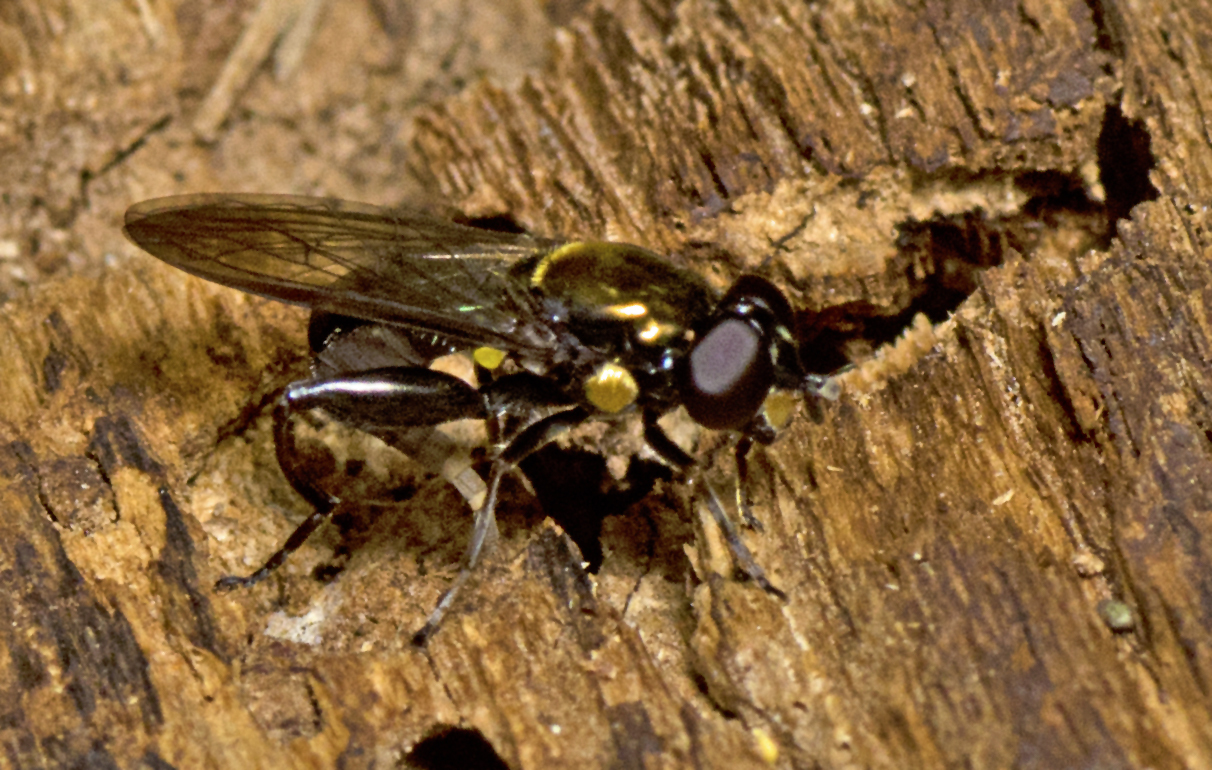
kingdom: Animalia
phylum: Arthropoda
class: Insecta
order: Diptera
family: Syrphidae
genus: Chalcosyrphus
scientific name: Chalcosyrphus pleuralis
